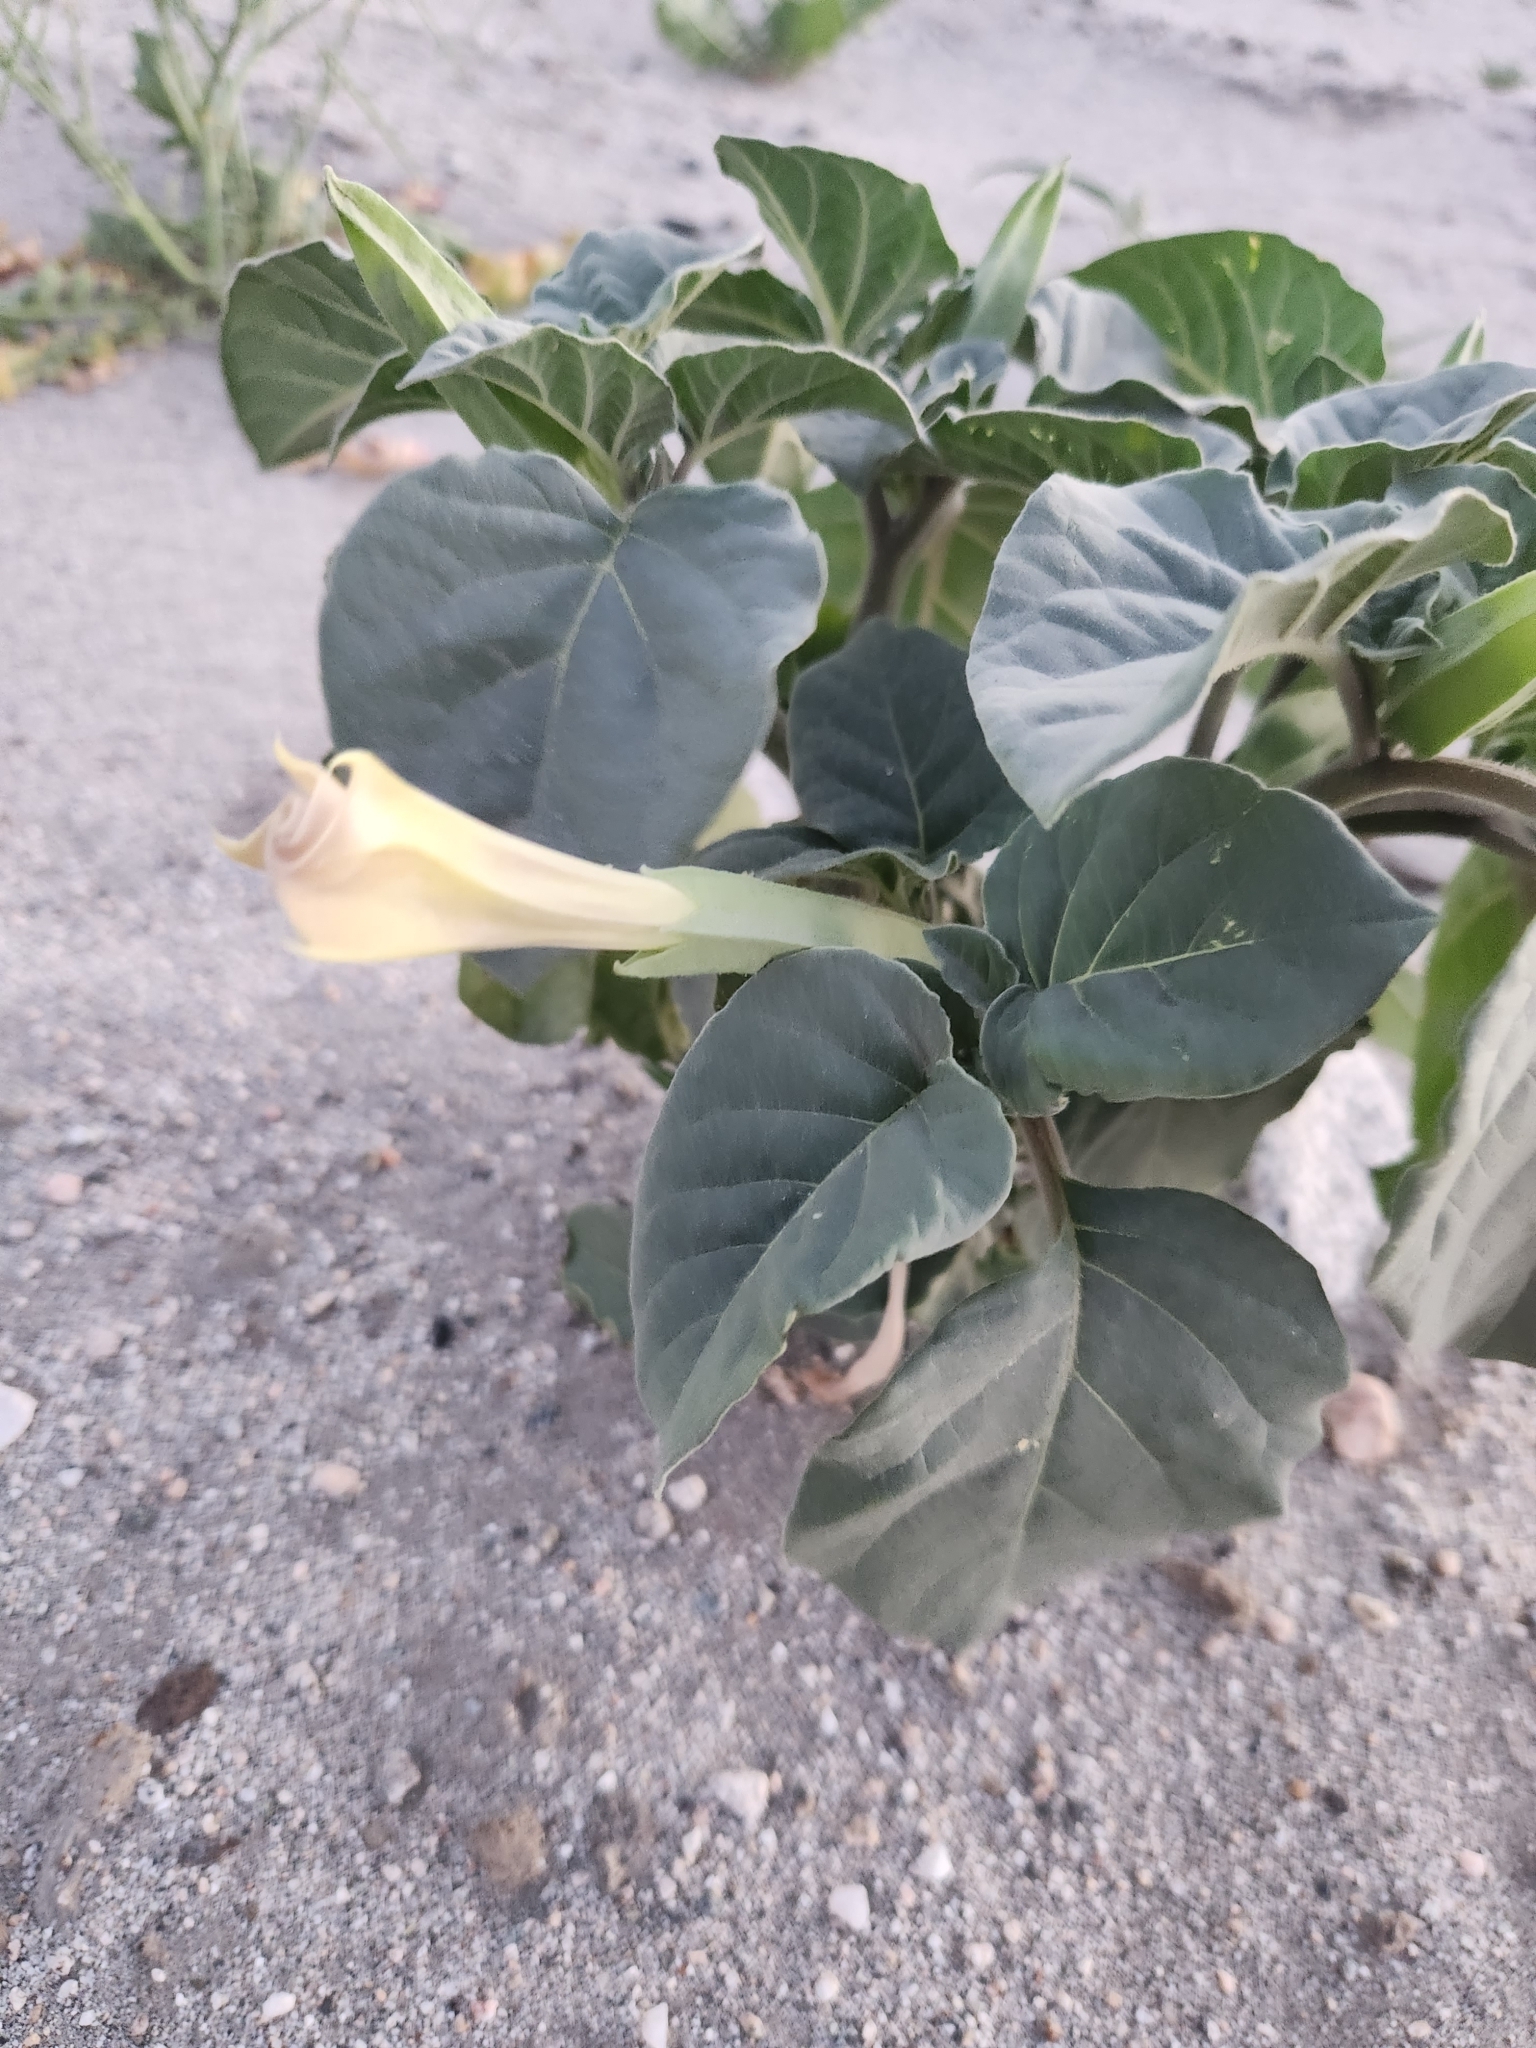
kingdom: Plantae
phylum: Tracheophyta
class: Magnoliopsida
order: Solanales
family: Solanaceae
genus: Datura
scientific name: Datura discolor
